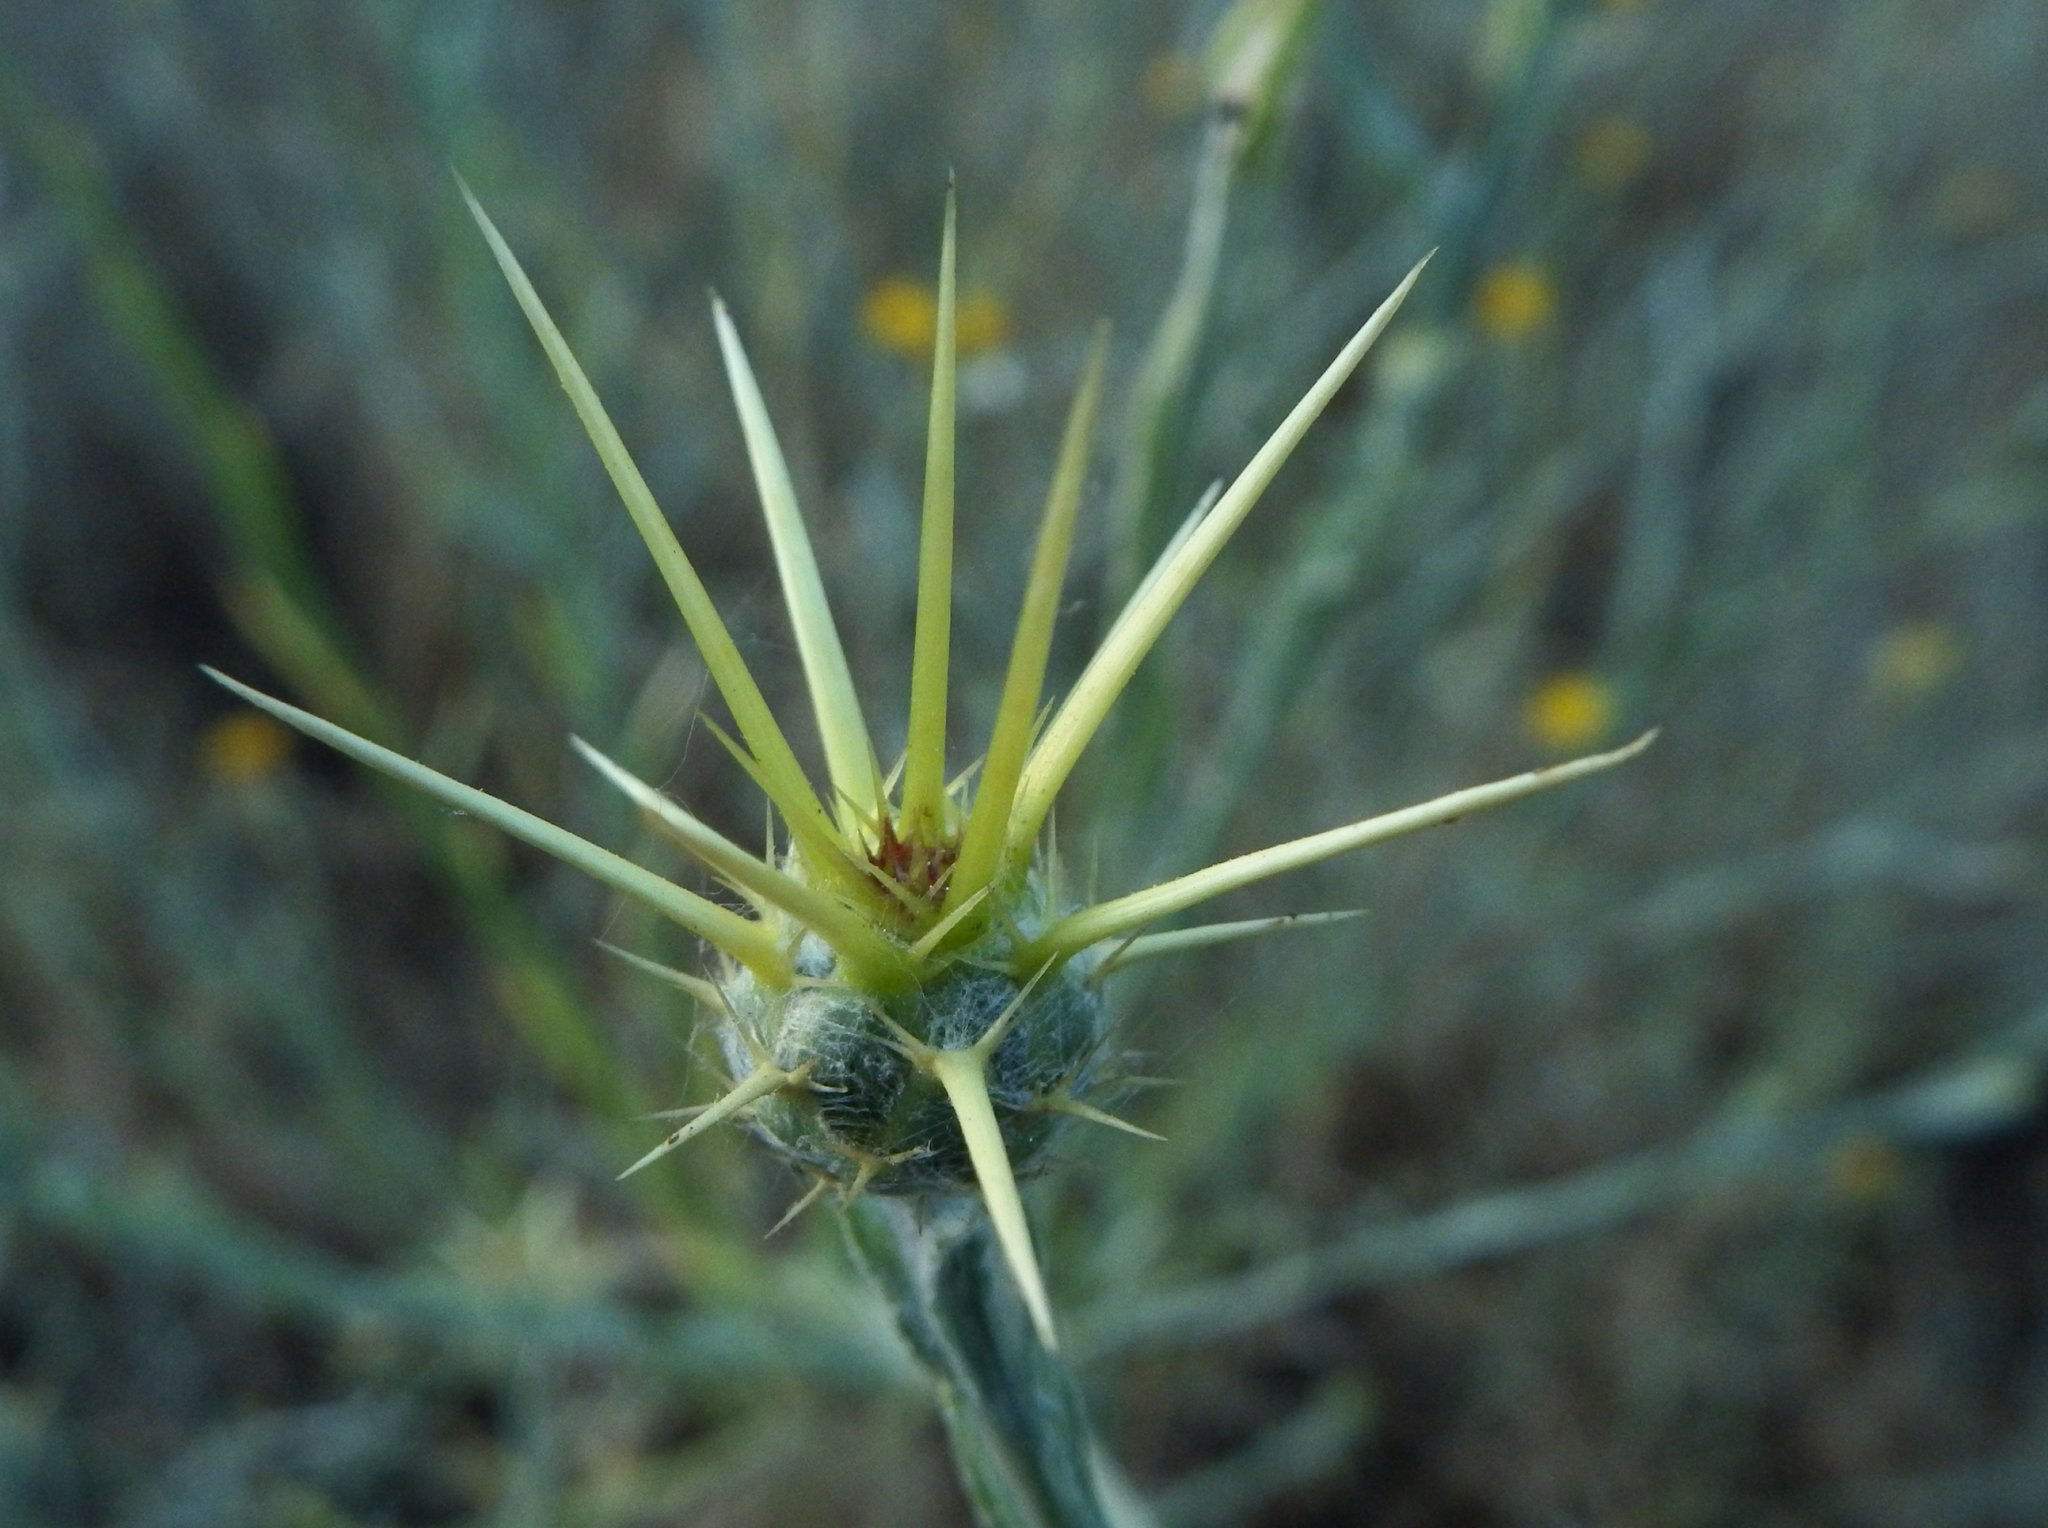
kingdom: Plantae
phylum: Tracheophyta
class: Magnoliopsida
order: Asterales
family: Asteraceae
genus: Centaurea
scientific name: Centaurea solstitialis
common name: Yellow star-thistle
